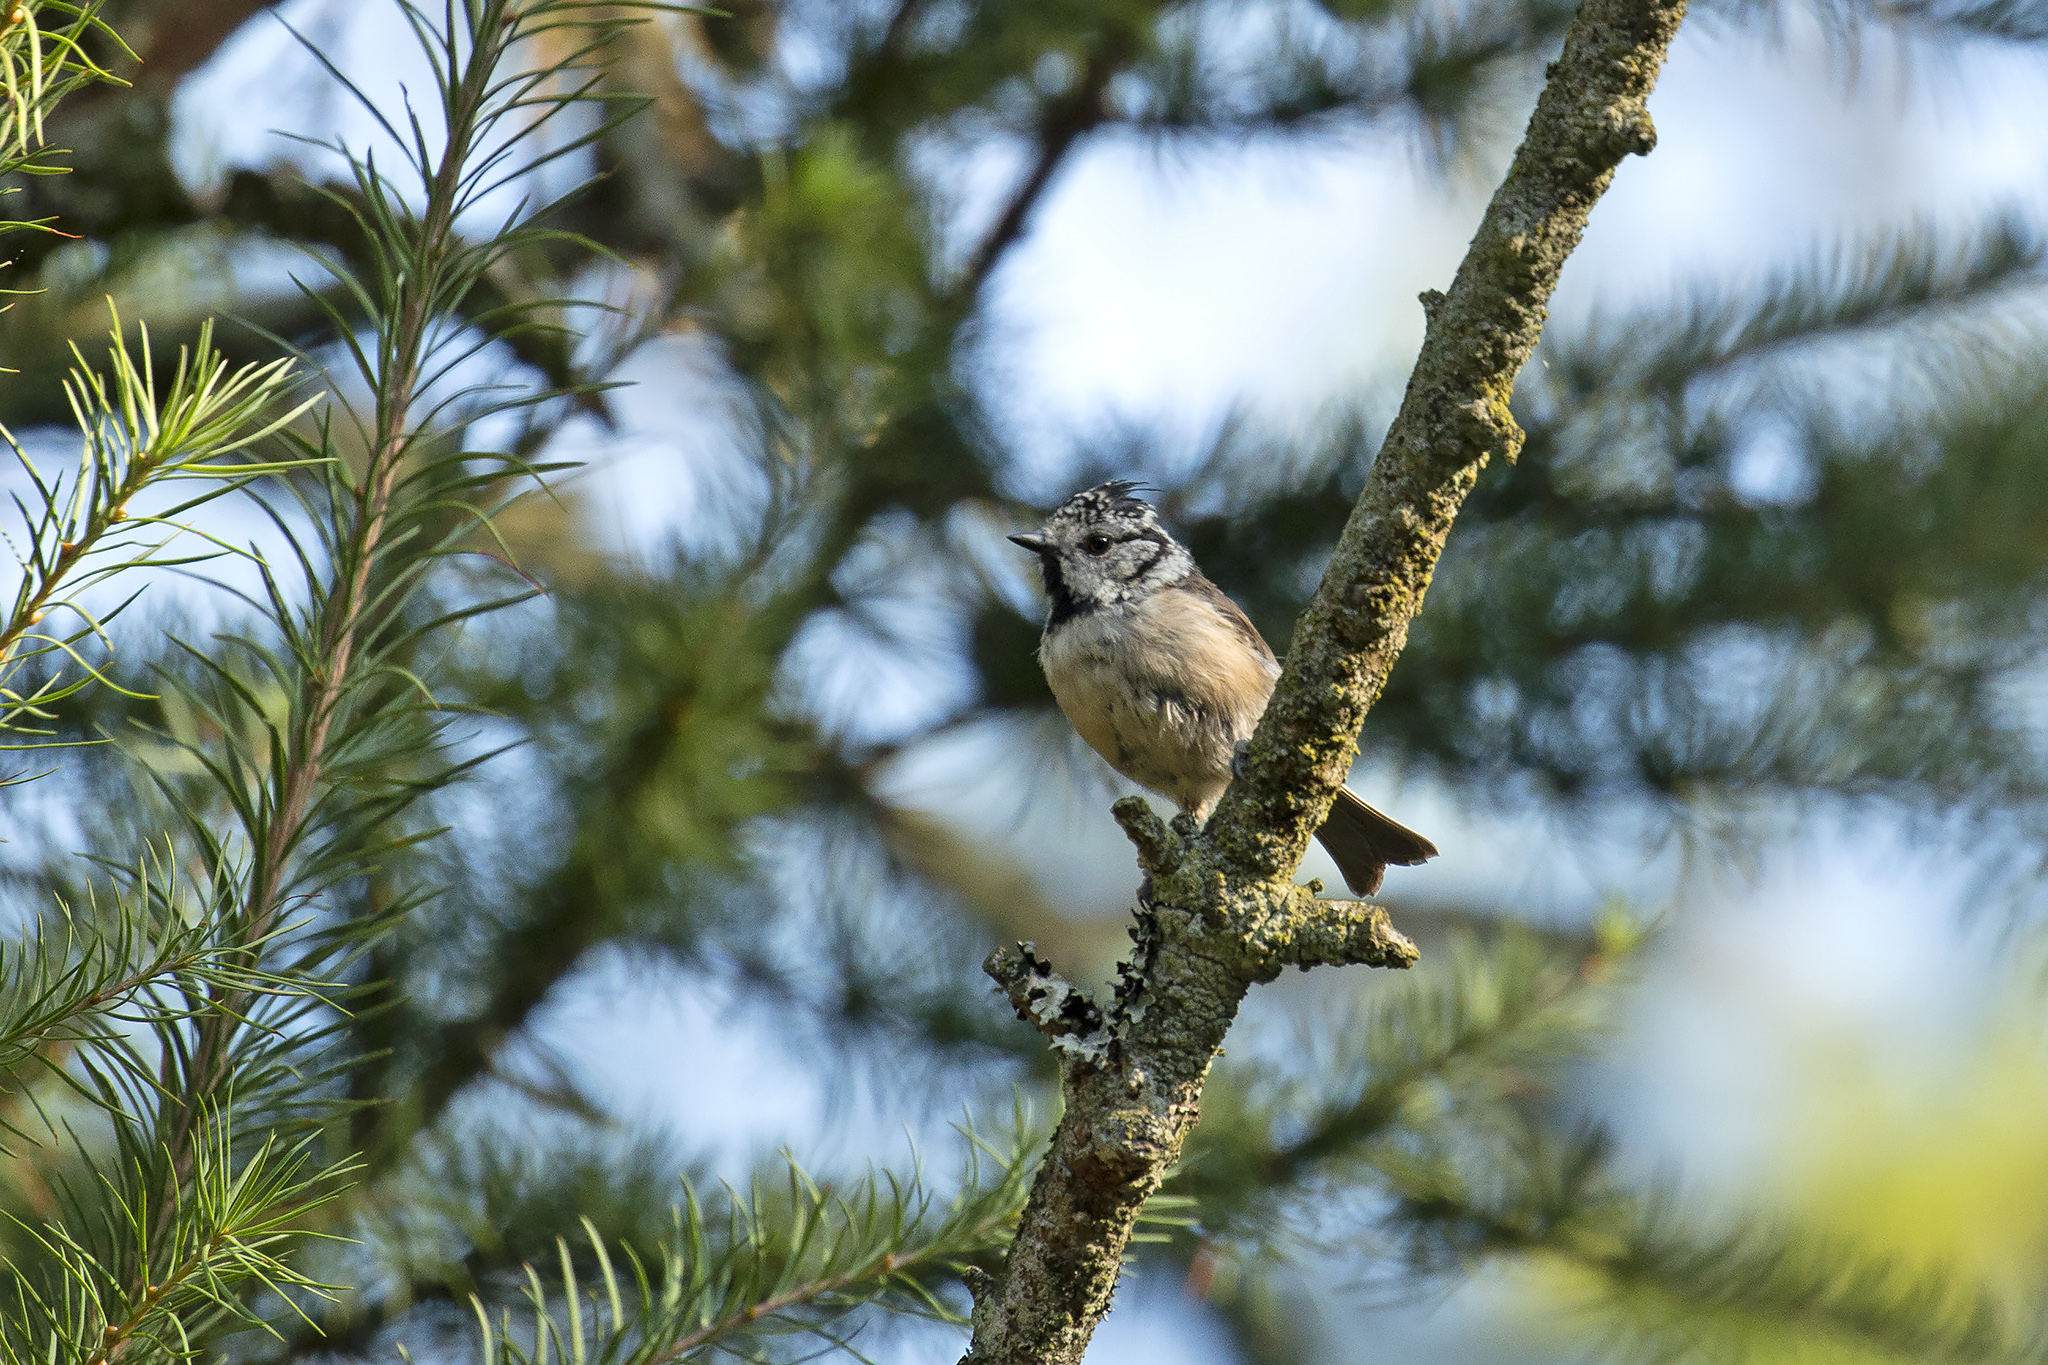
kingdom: Animalia
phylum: Chordata
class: Aves
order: Passeriformes
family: Paridae
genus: Lophophanes
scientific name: Lophophanes cristatus
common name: European crested tit
